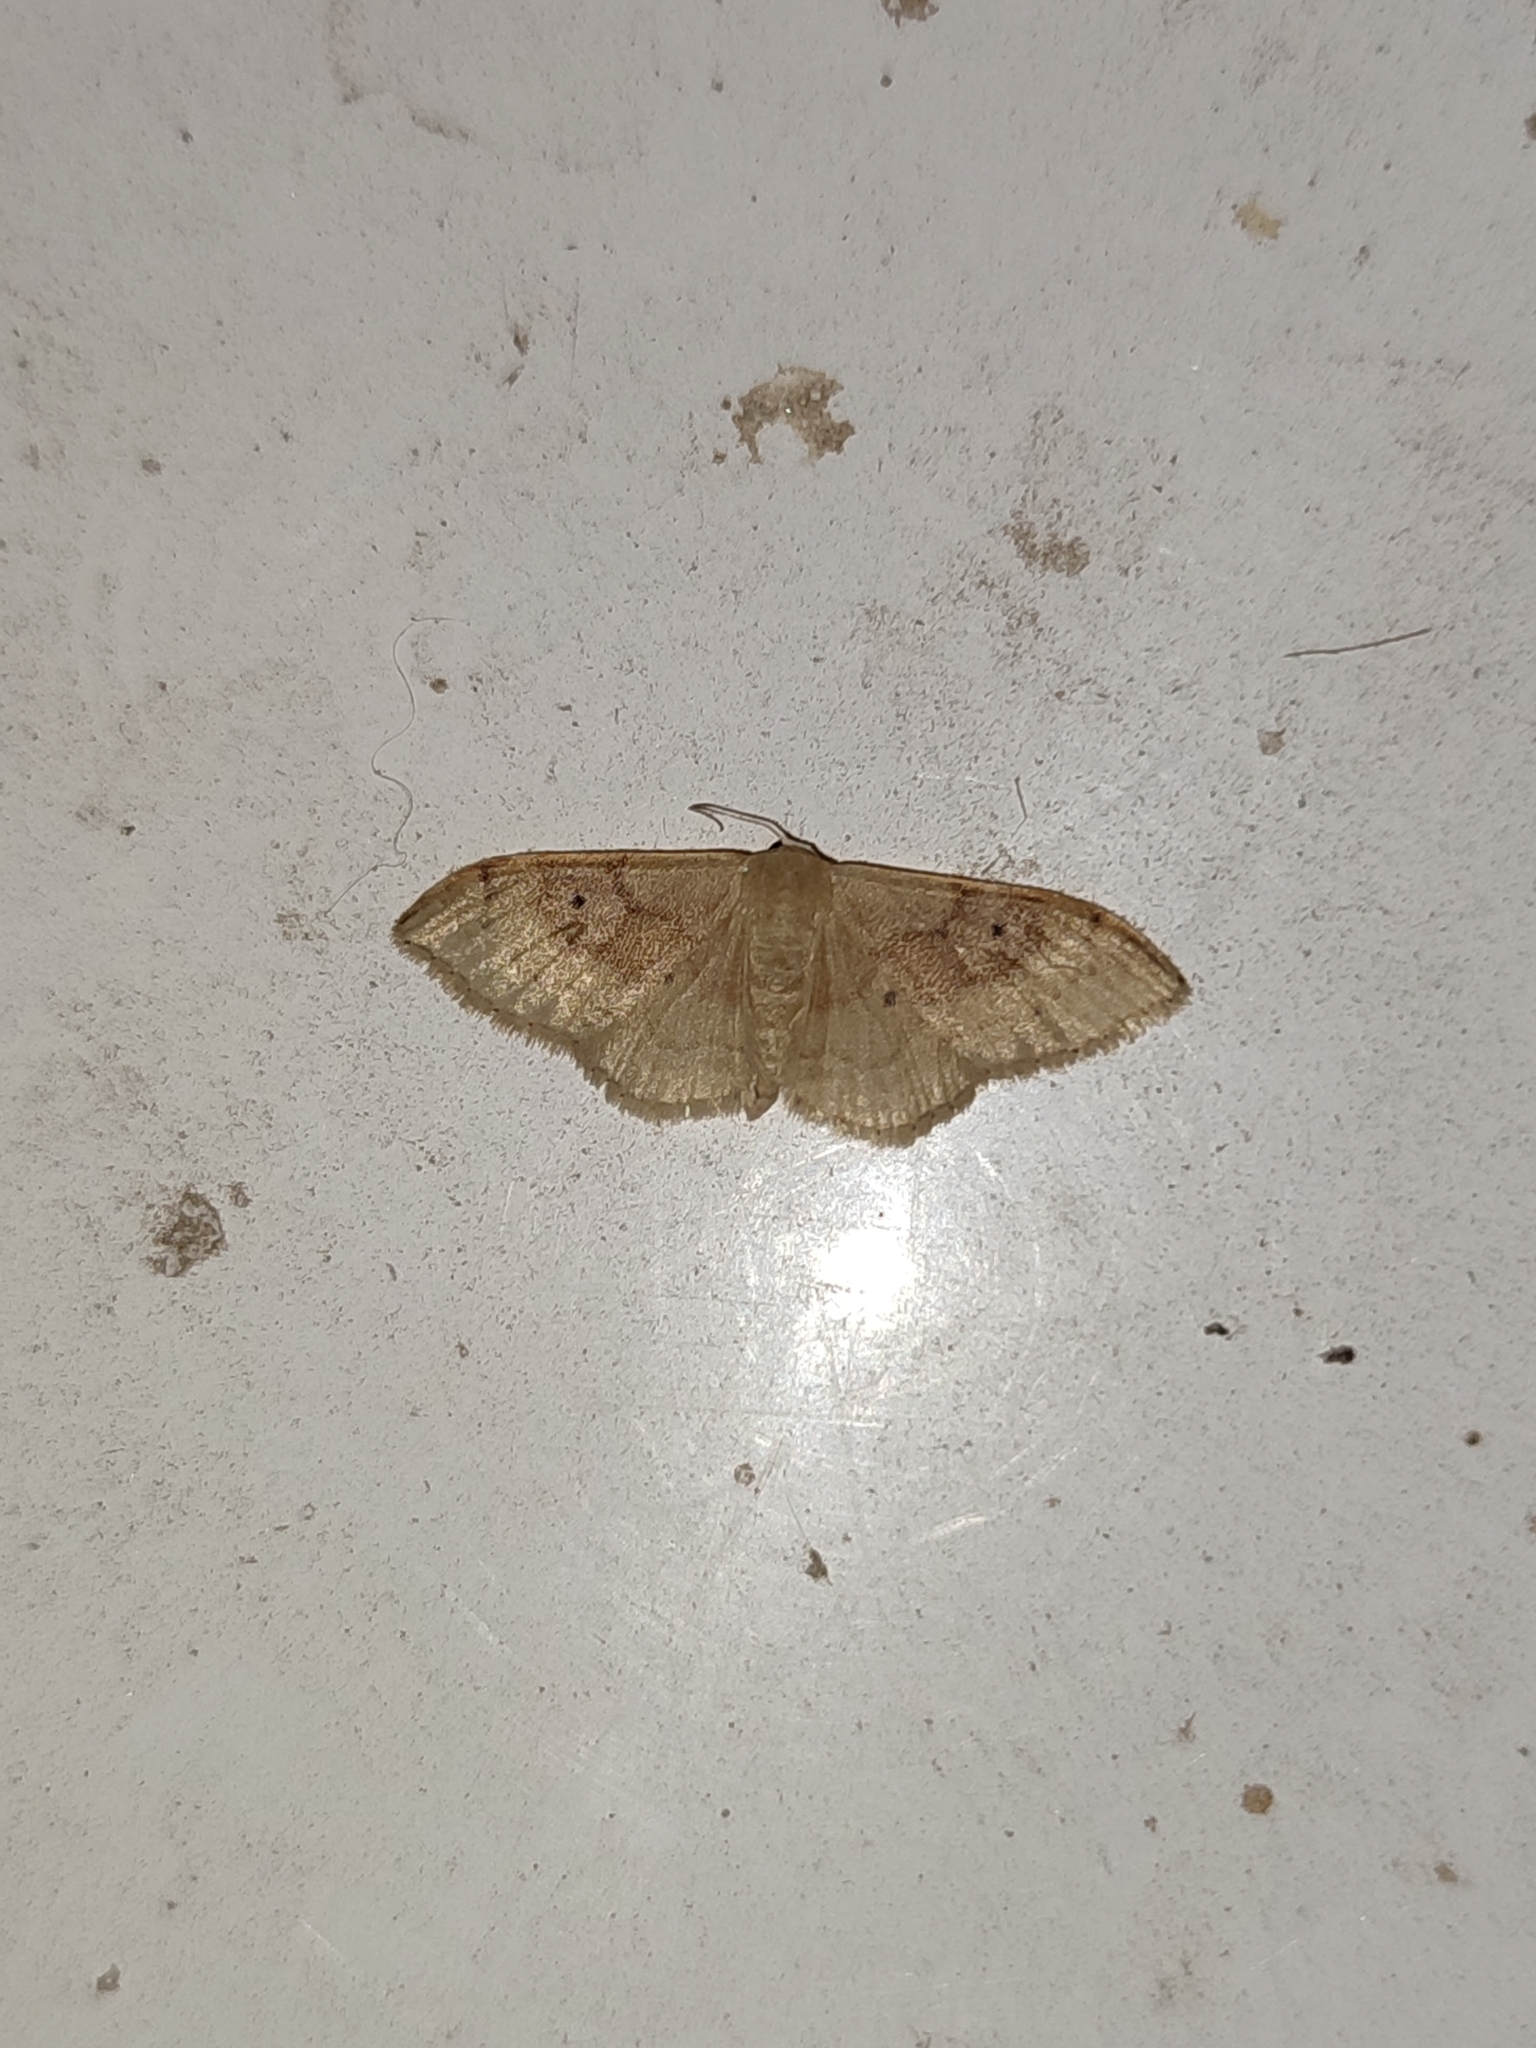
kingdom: Animalia
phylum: Arthropoda
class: Insecta
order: Lepidoptera
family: Geometridae
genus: Idaea
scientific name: Idaea degeneraria
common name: Portland ribbon wave
